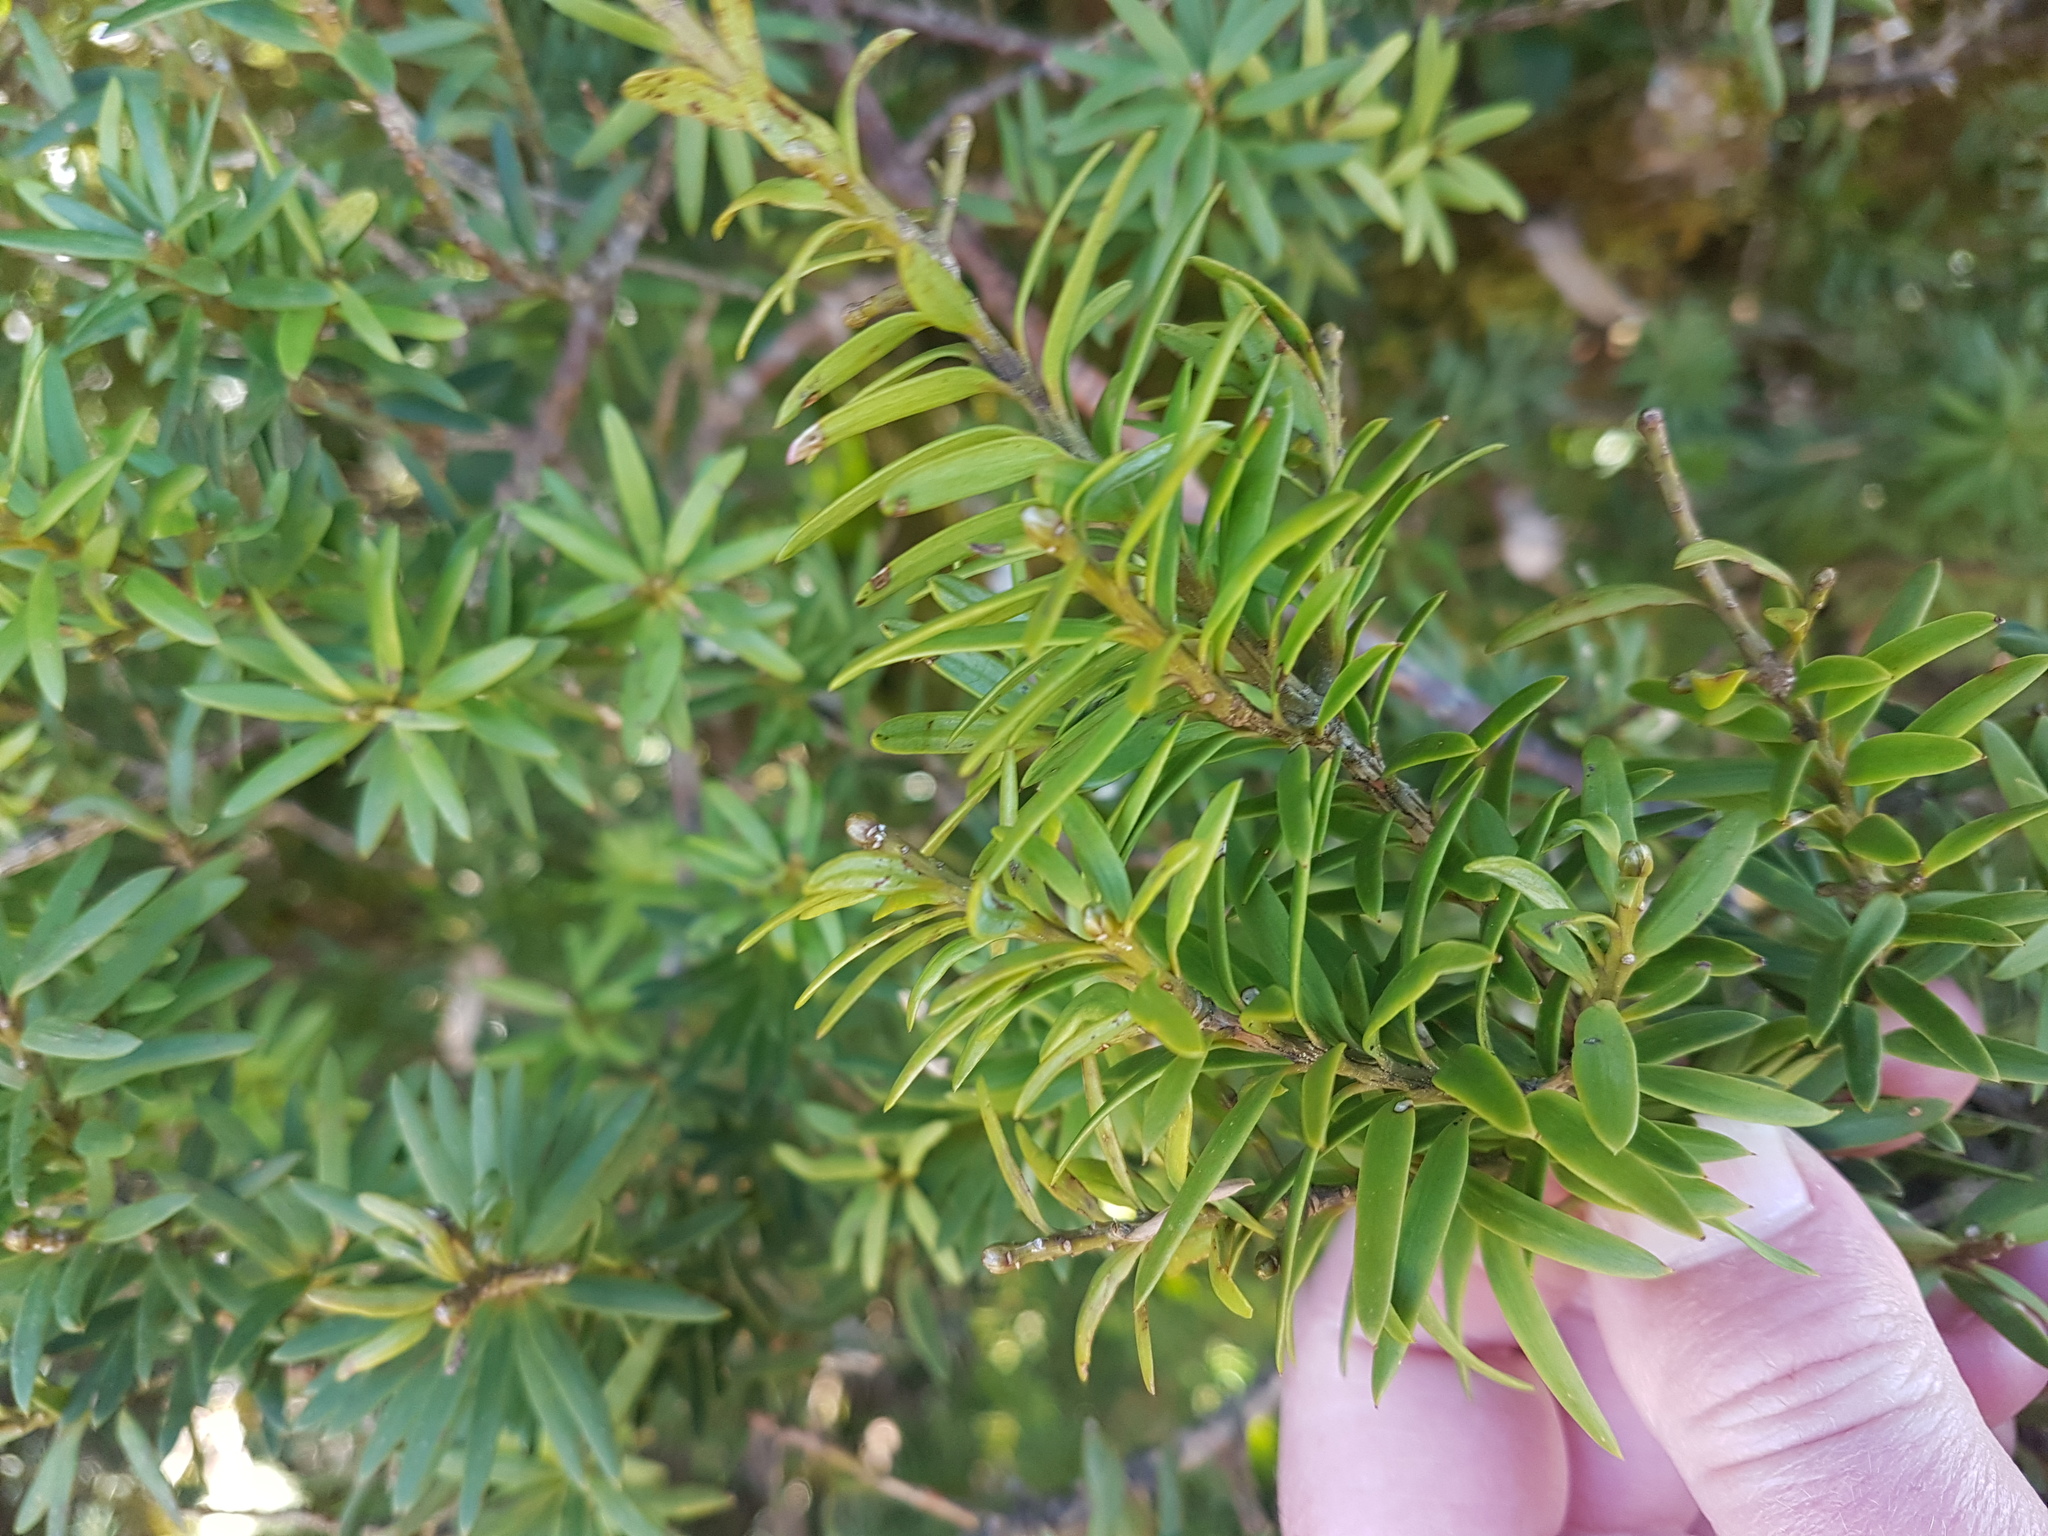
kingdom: Plantae
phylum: Tracheophyta
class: Pinopsida
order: Pinales
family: Podocarpaceae
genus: Podocarpus
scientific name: Podocarpus laetus
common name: Hall's totara
